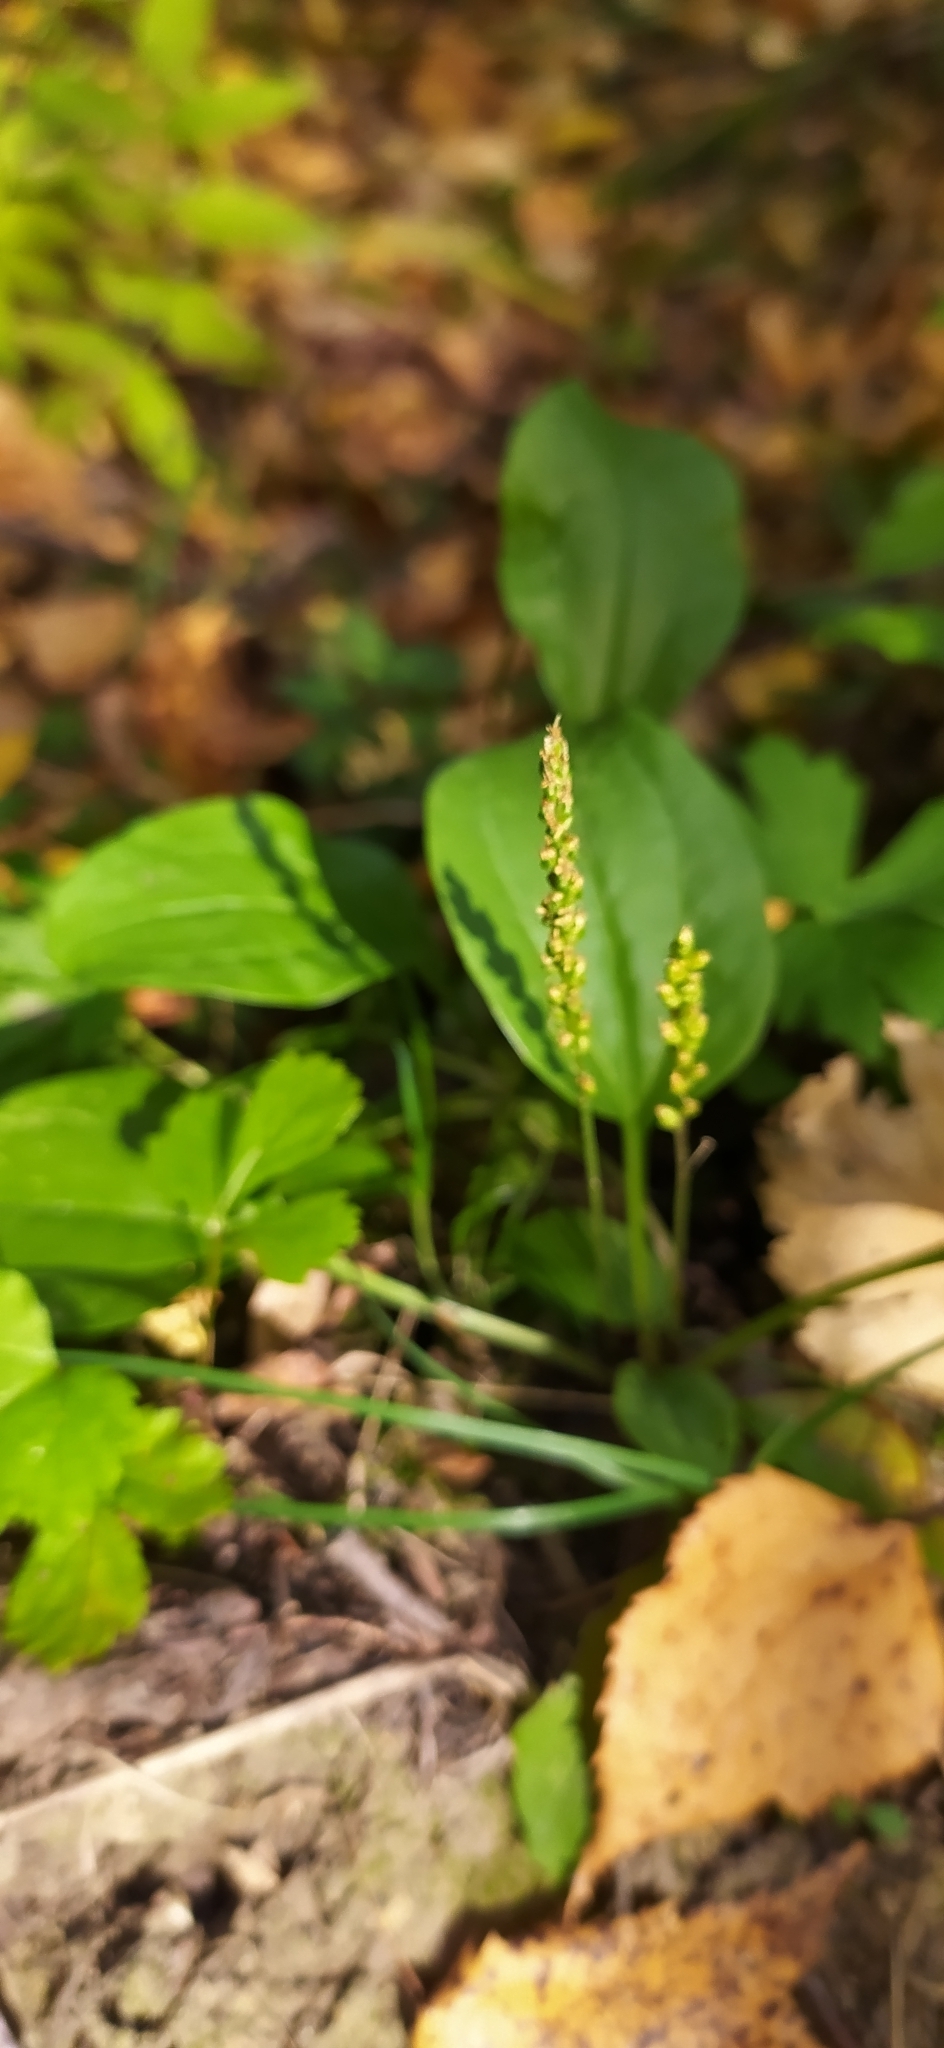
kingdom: Plantae
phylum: Tracheophyta
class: Magnoliopsida
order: Lamiales
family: Plantaginaceae
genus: Plantago
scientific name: Plantago major
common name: Common plantain
